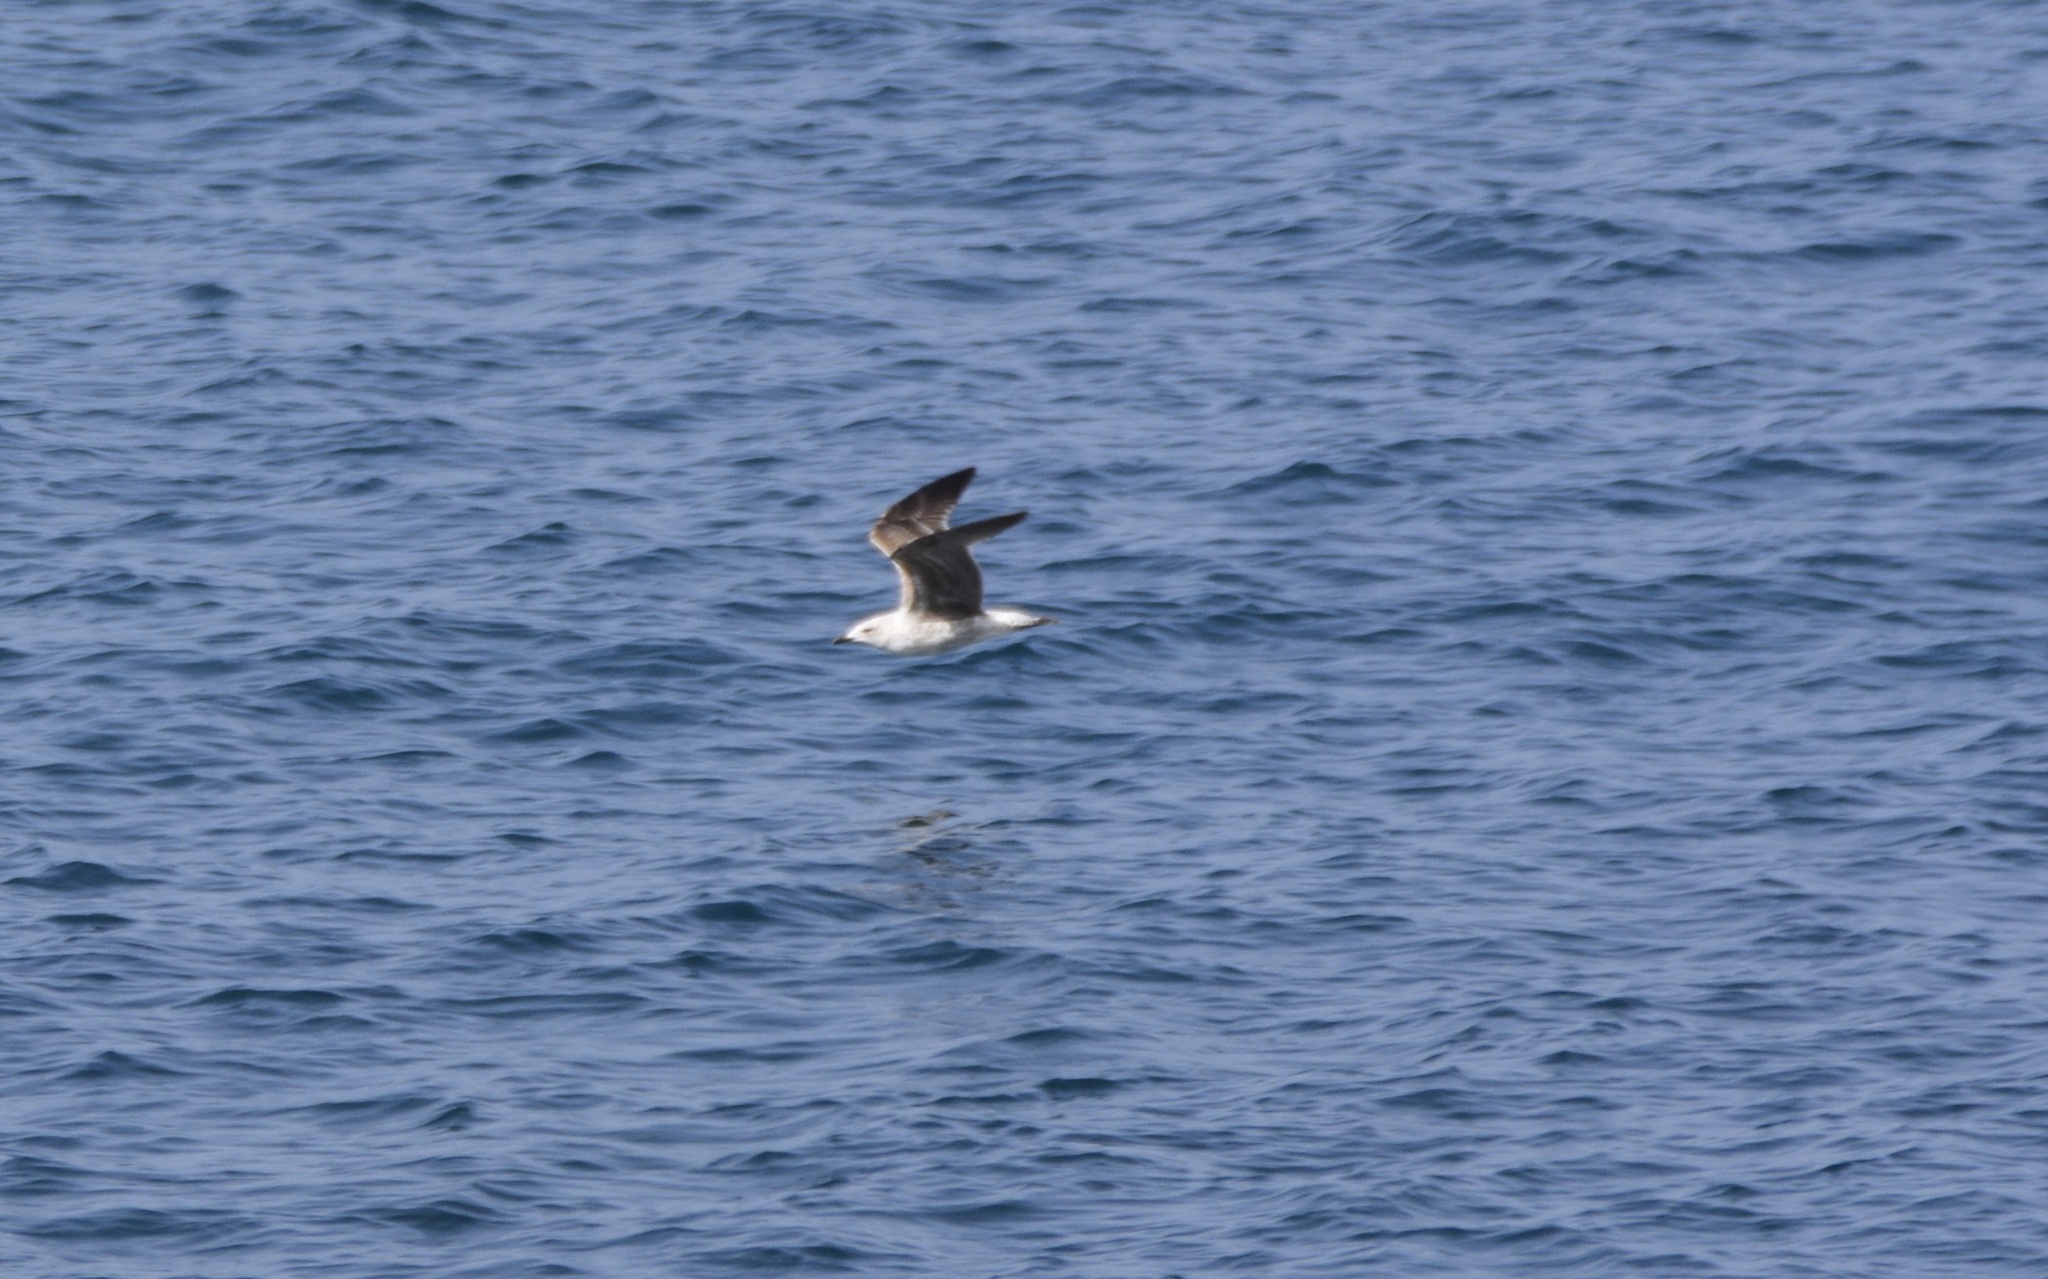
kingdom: Animalia
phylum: Chordata
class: Aves
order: Charadriiformes
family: Laridae
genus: Larus
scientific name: Larus michahellis
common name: Yellow-legged gull
